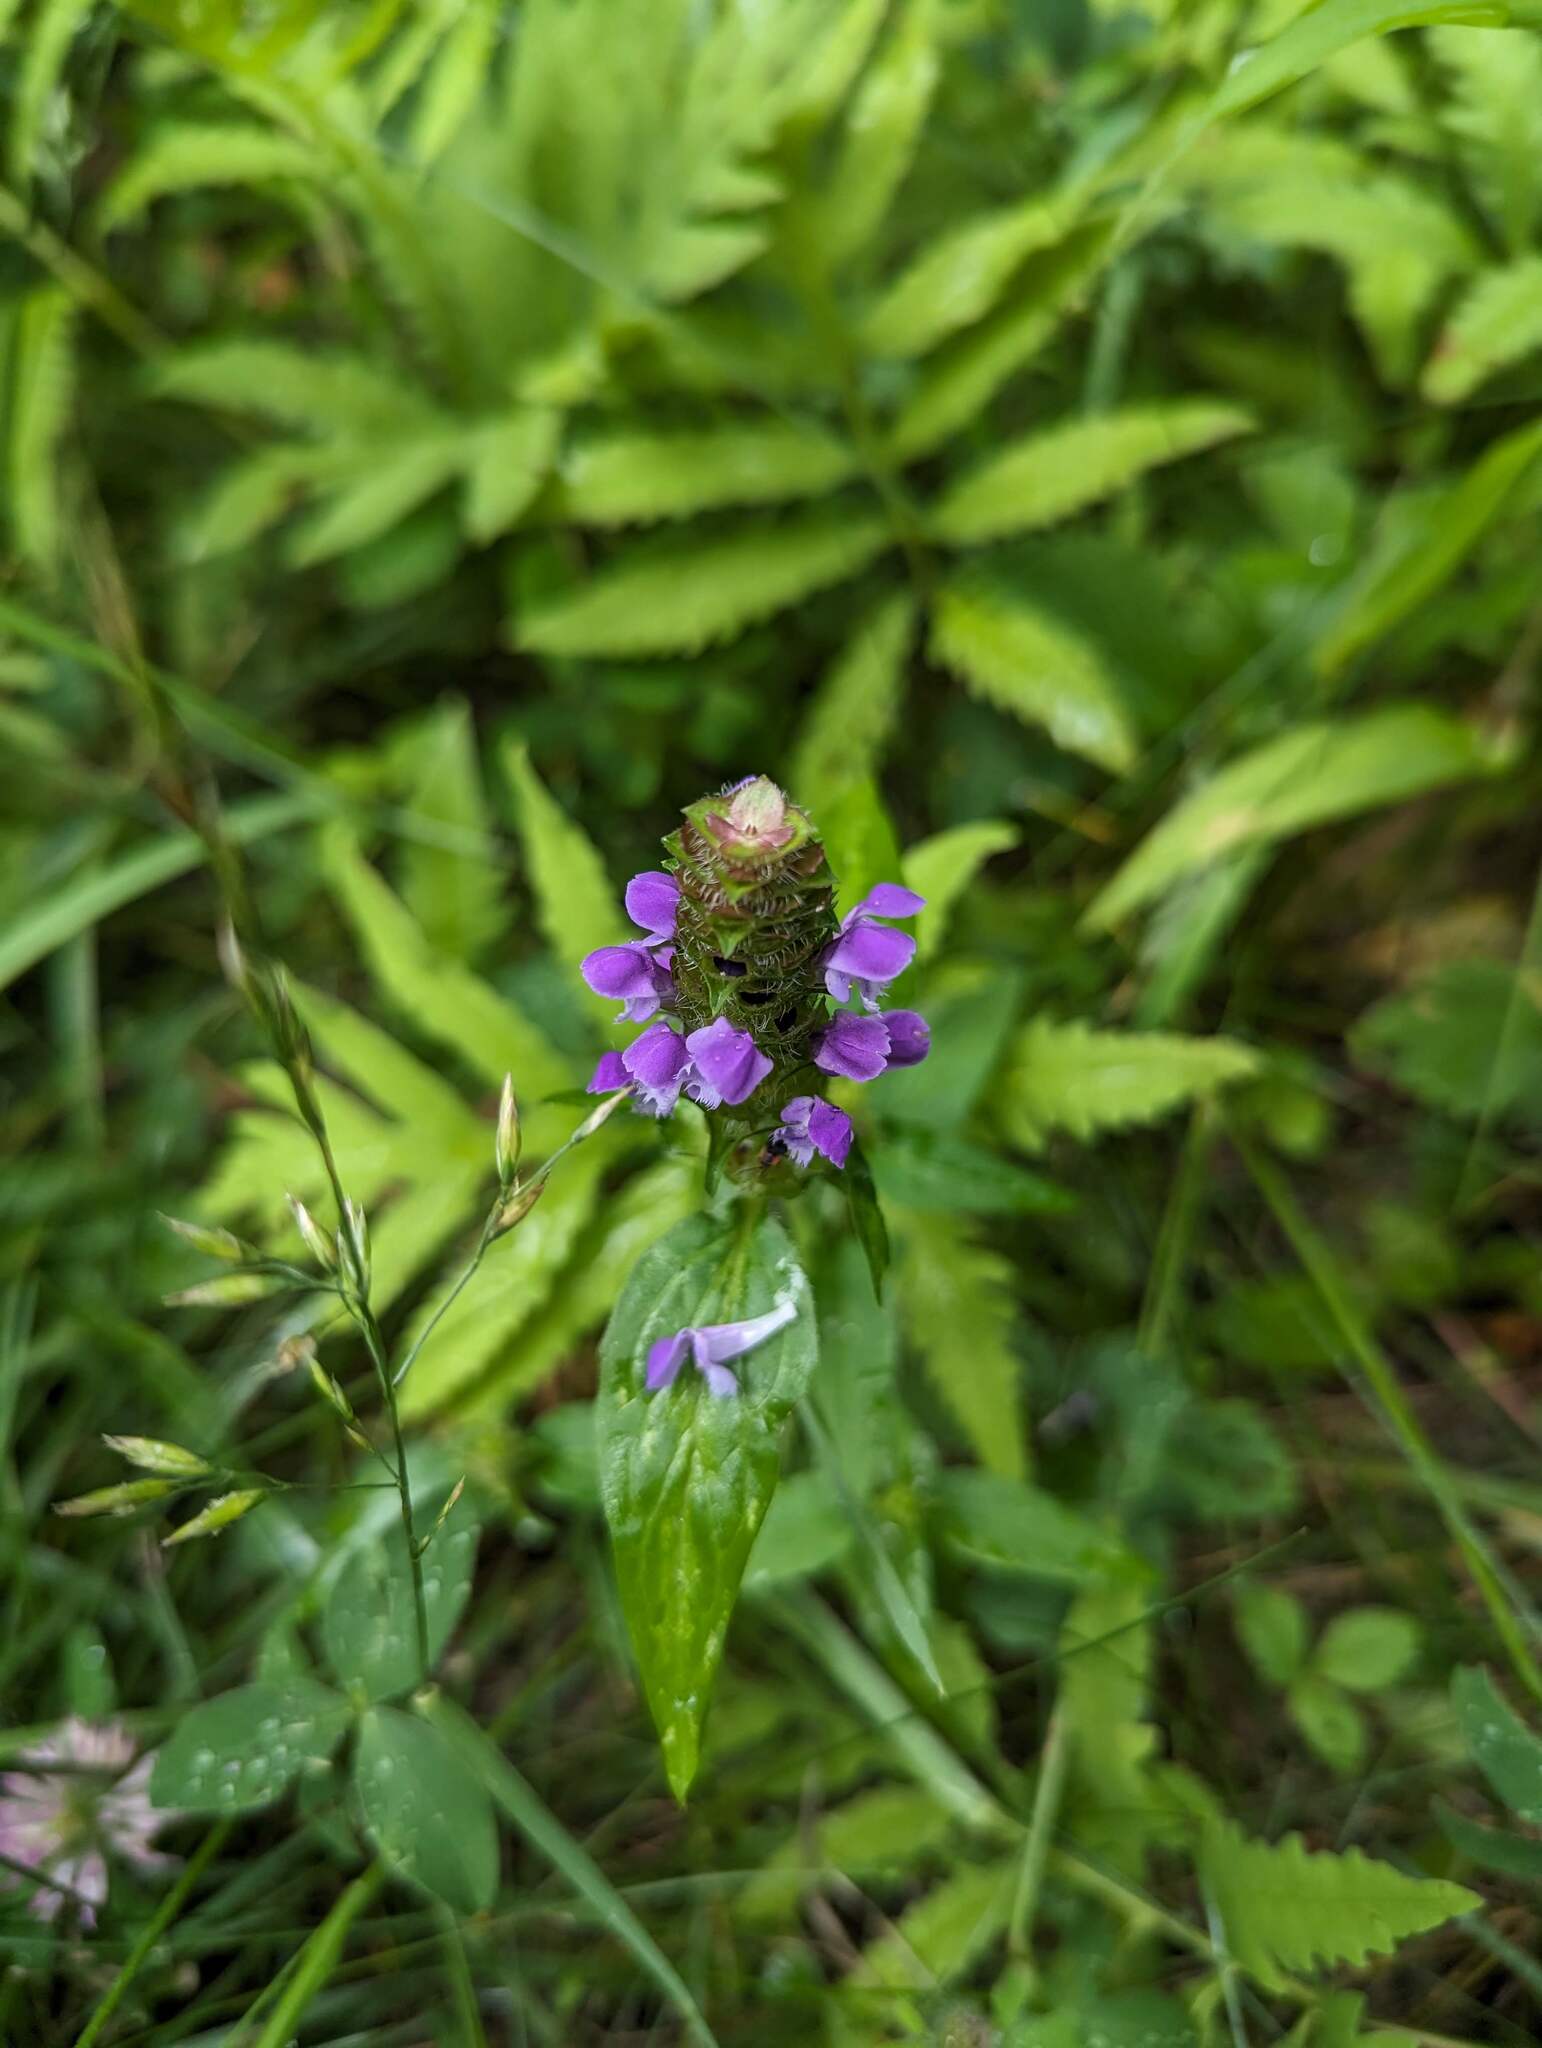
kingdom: Plantae
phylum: Tracheophyta
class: Magnoliopsida
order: Lamiales
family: Lamiaceae
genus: Prunella
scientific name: Prunella vulgaris
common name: Heal-all
